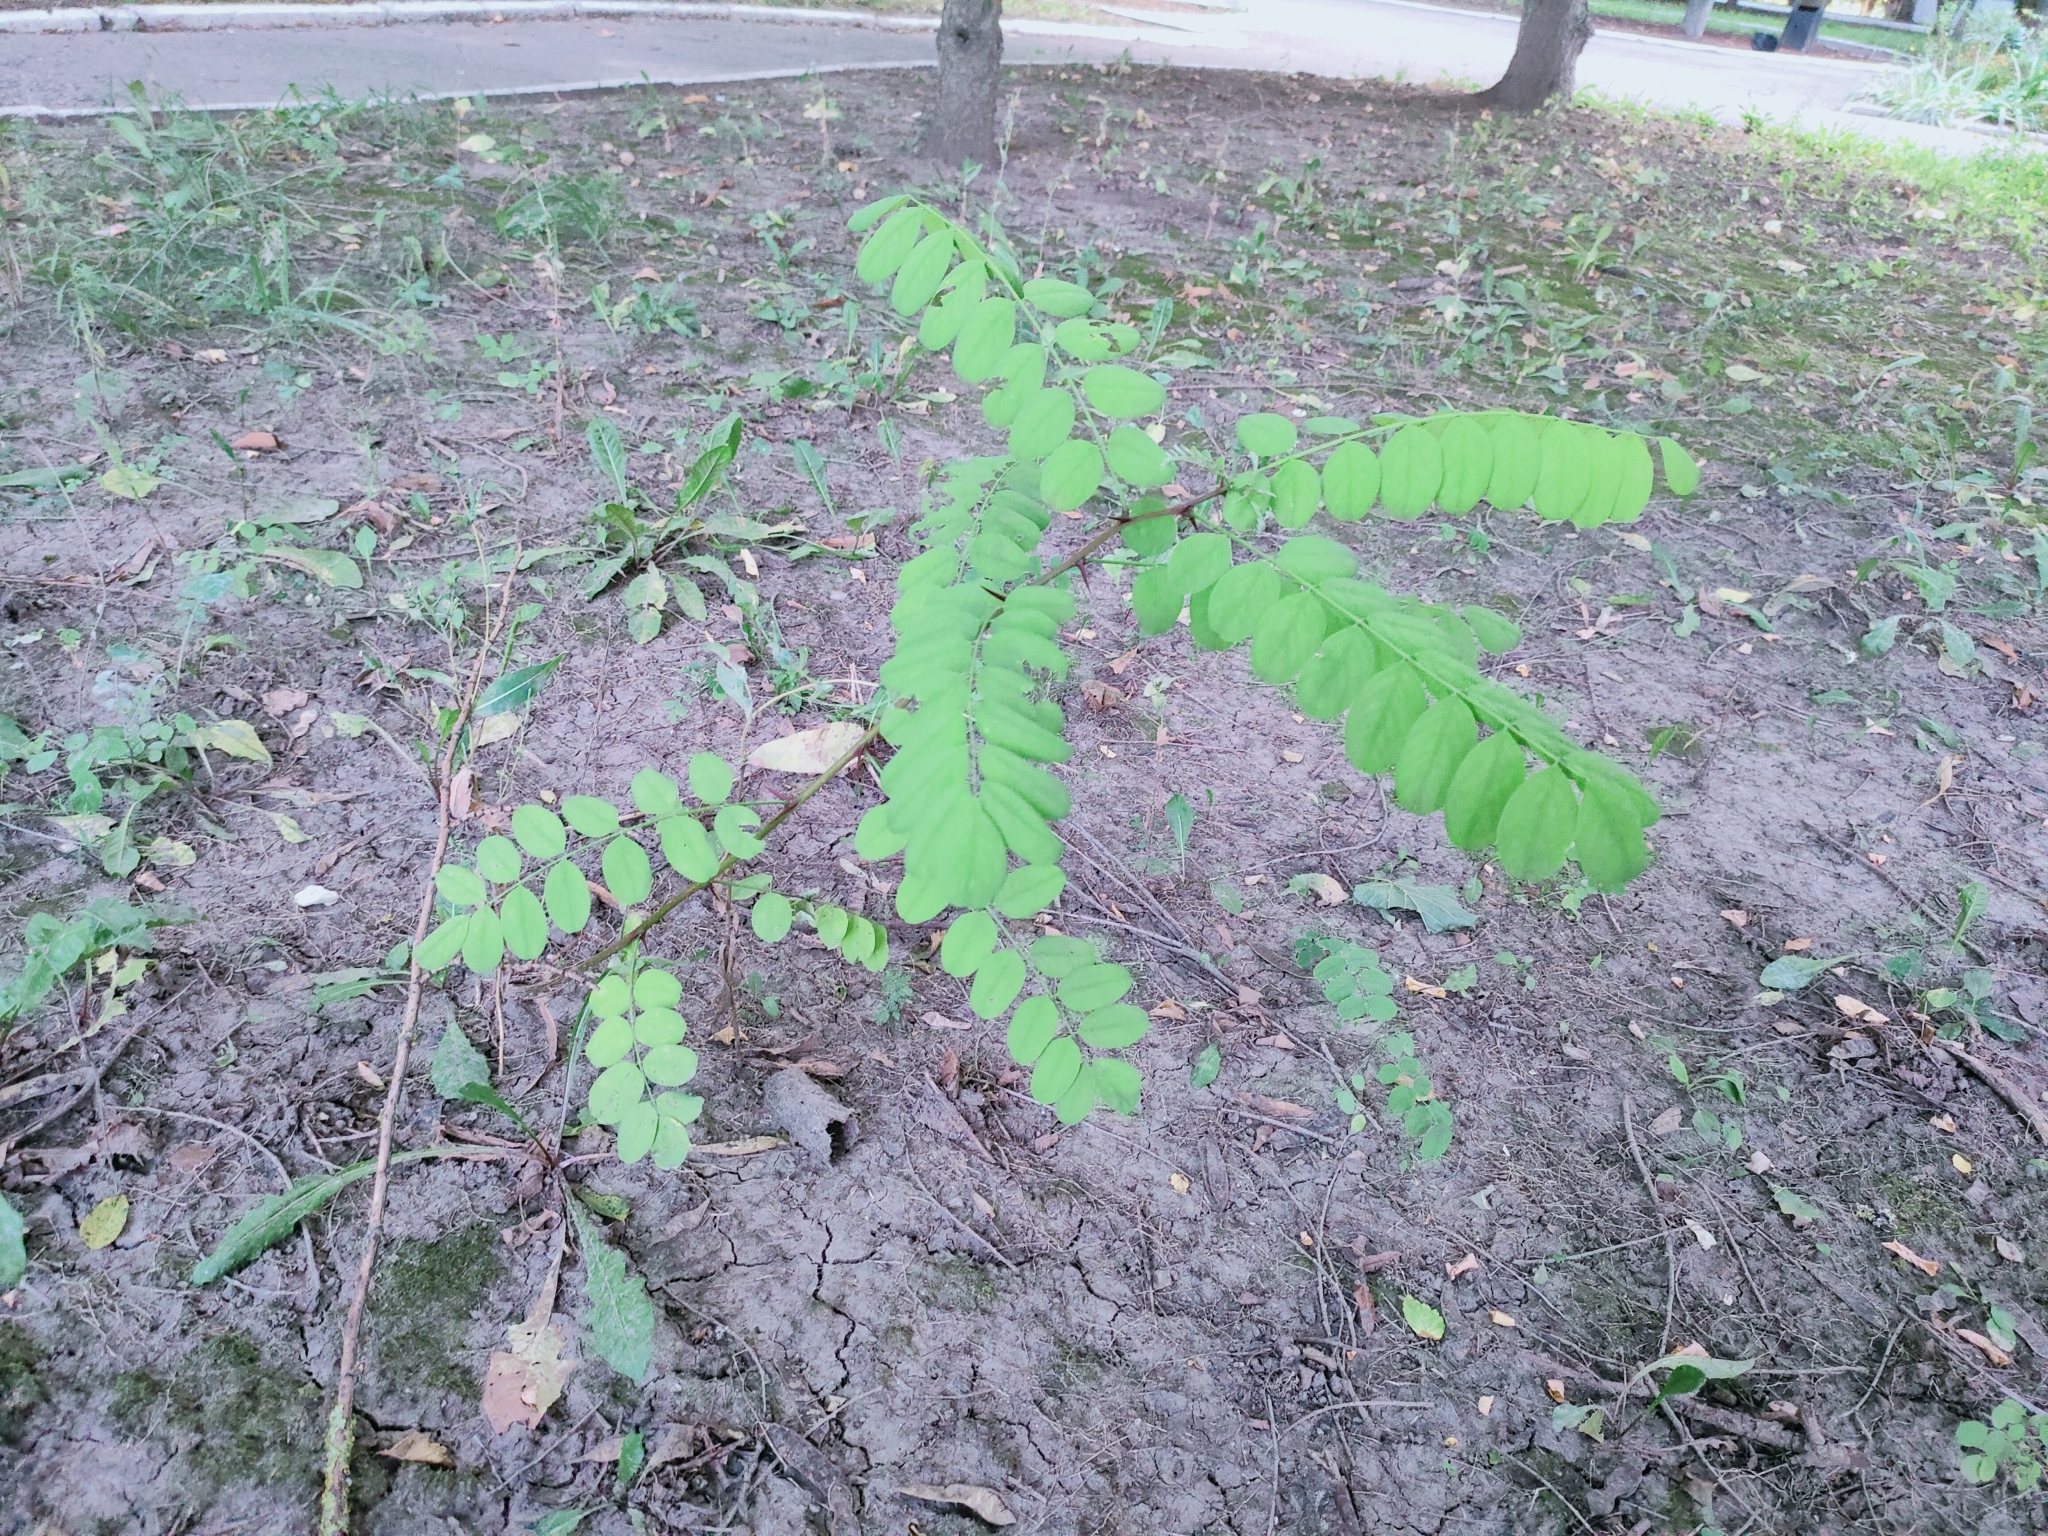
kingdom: Plantae
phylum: Tracheophyta
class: Magnoliopsida
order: Fabales
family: Fabaceae
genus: Robinia
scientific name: Robinia pseudoacacia
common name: Black locust
